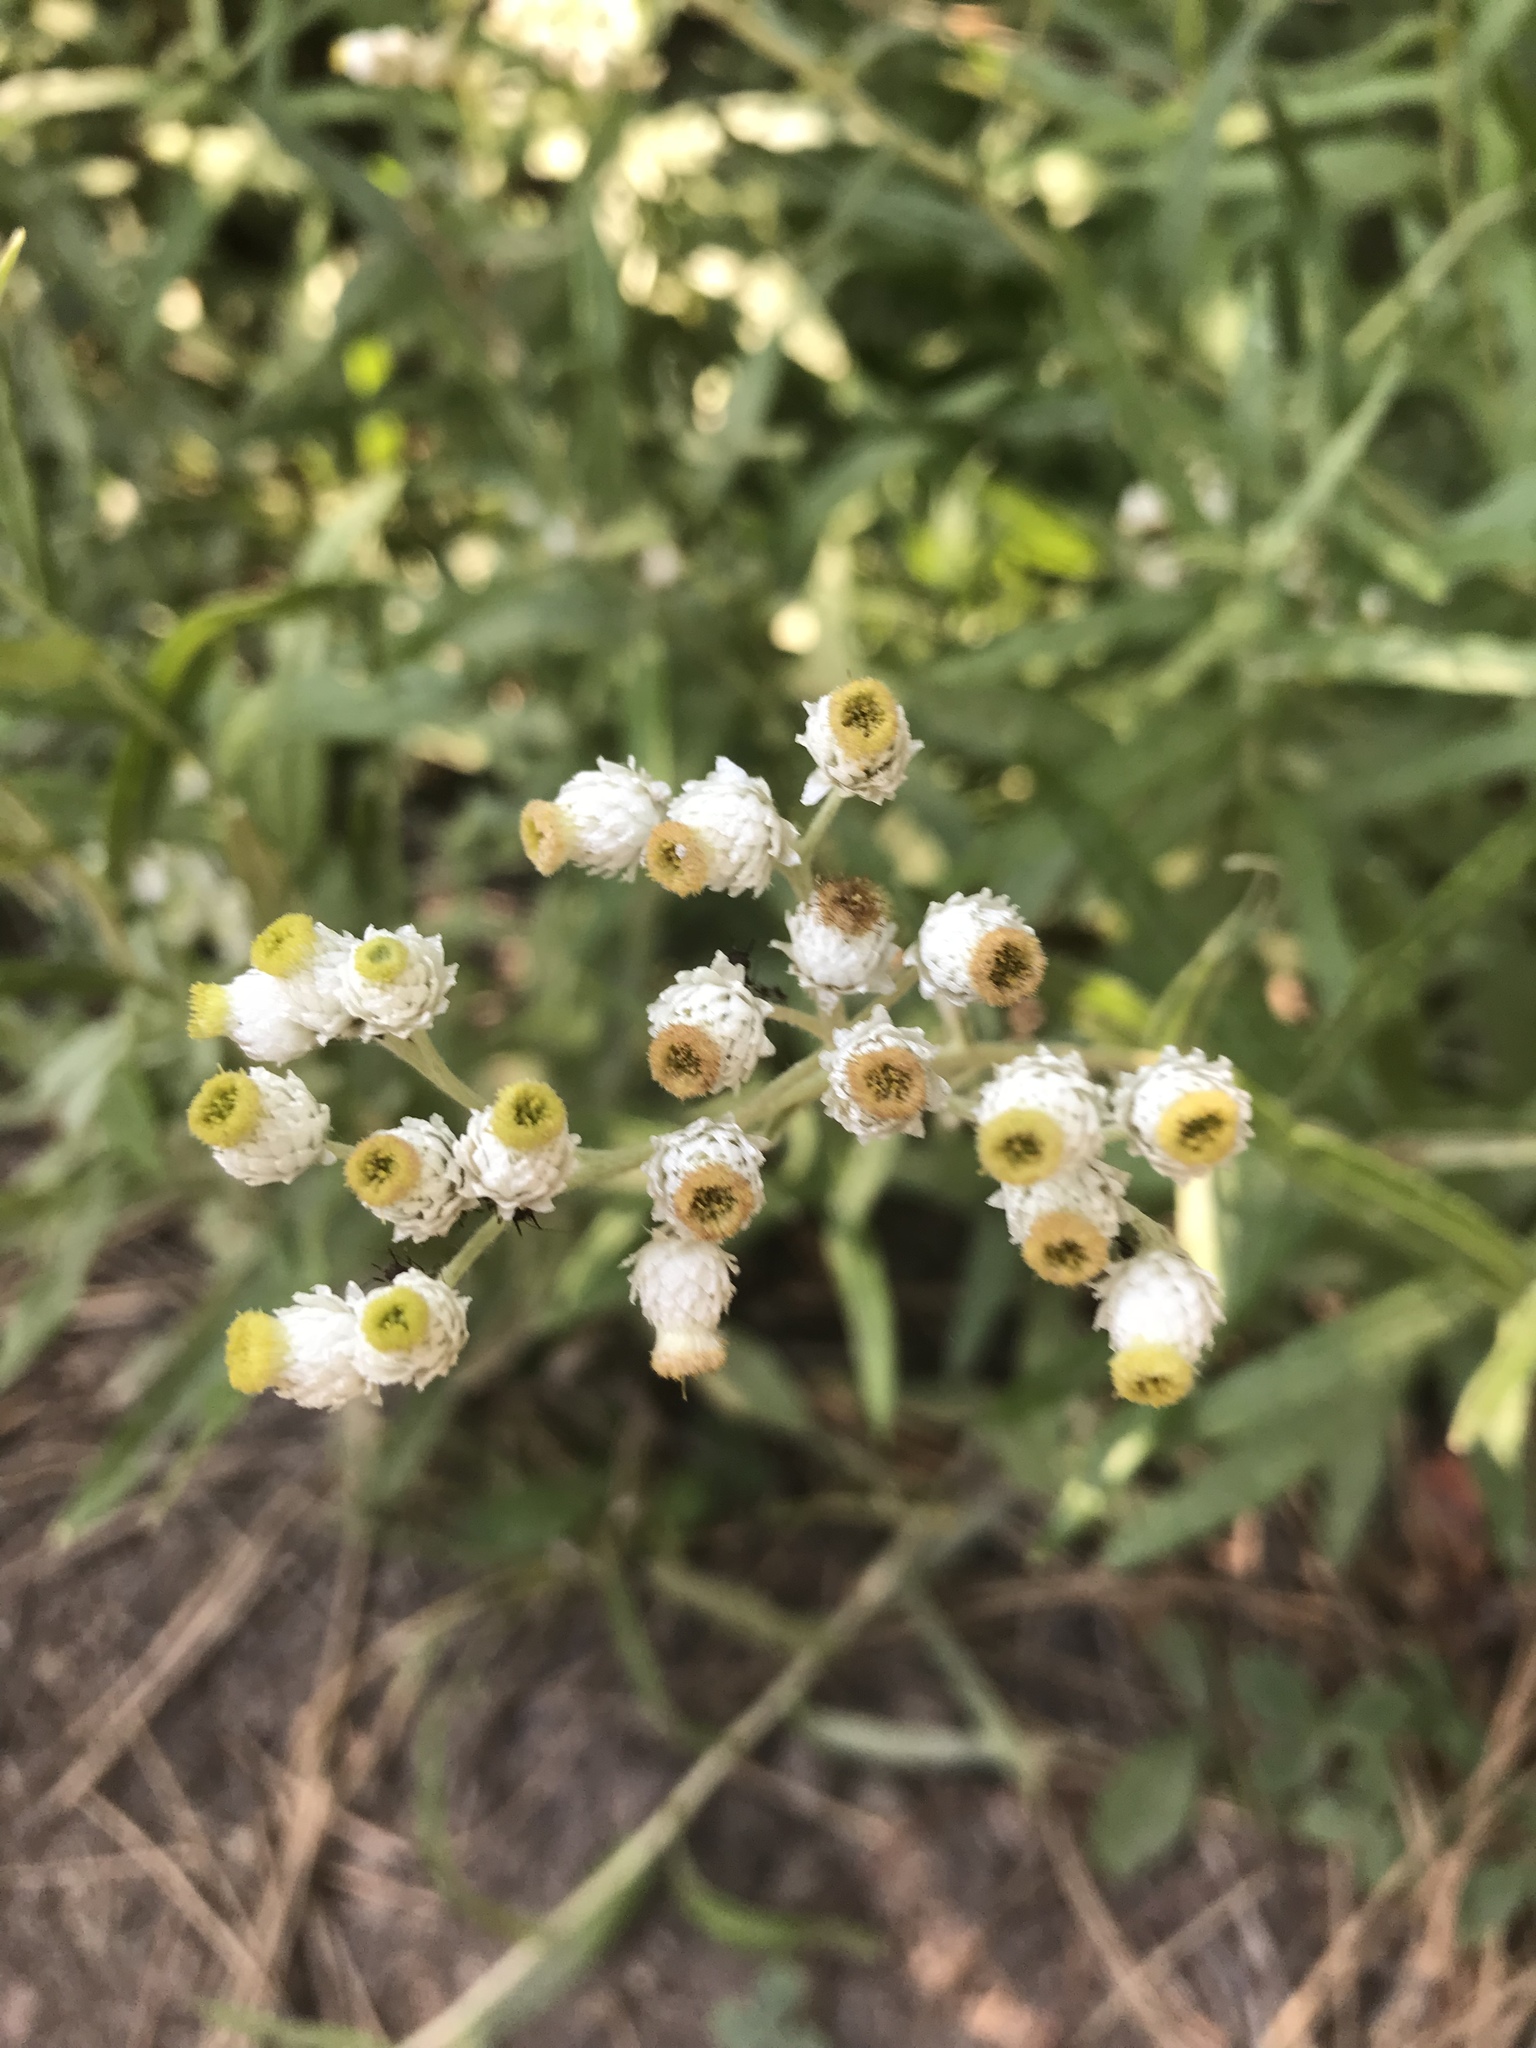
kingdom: Plantae
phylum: Tracheophyta
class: Magnoliopsida
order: Asterales
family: Asteraceae
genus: Anaphalis
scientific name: Anaphalis margaritacea
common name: Pearly everlasting
